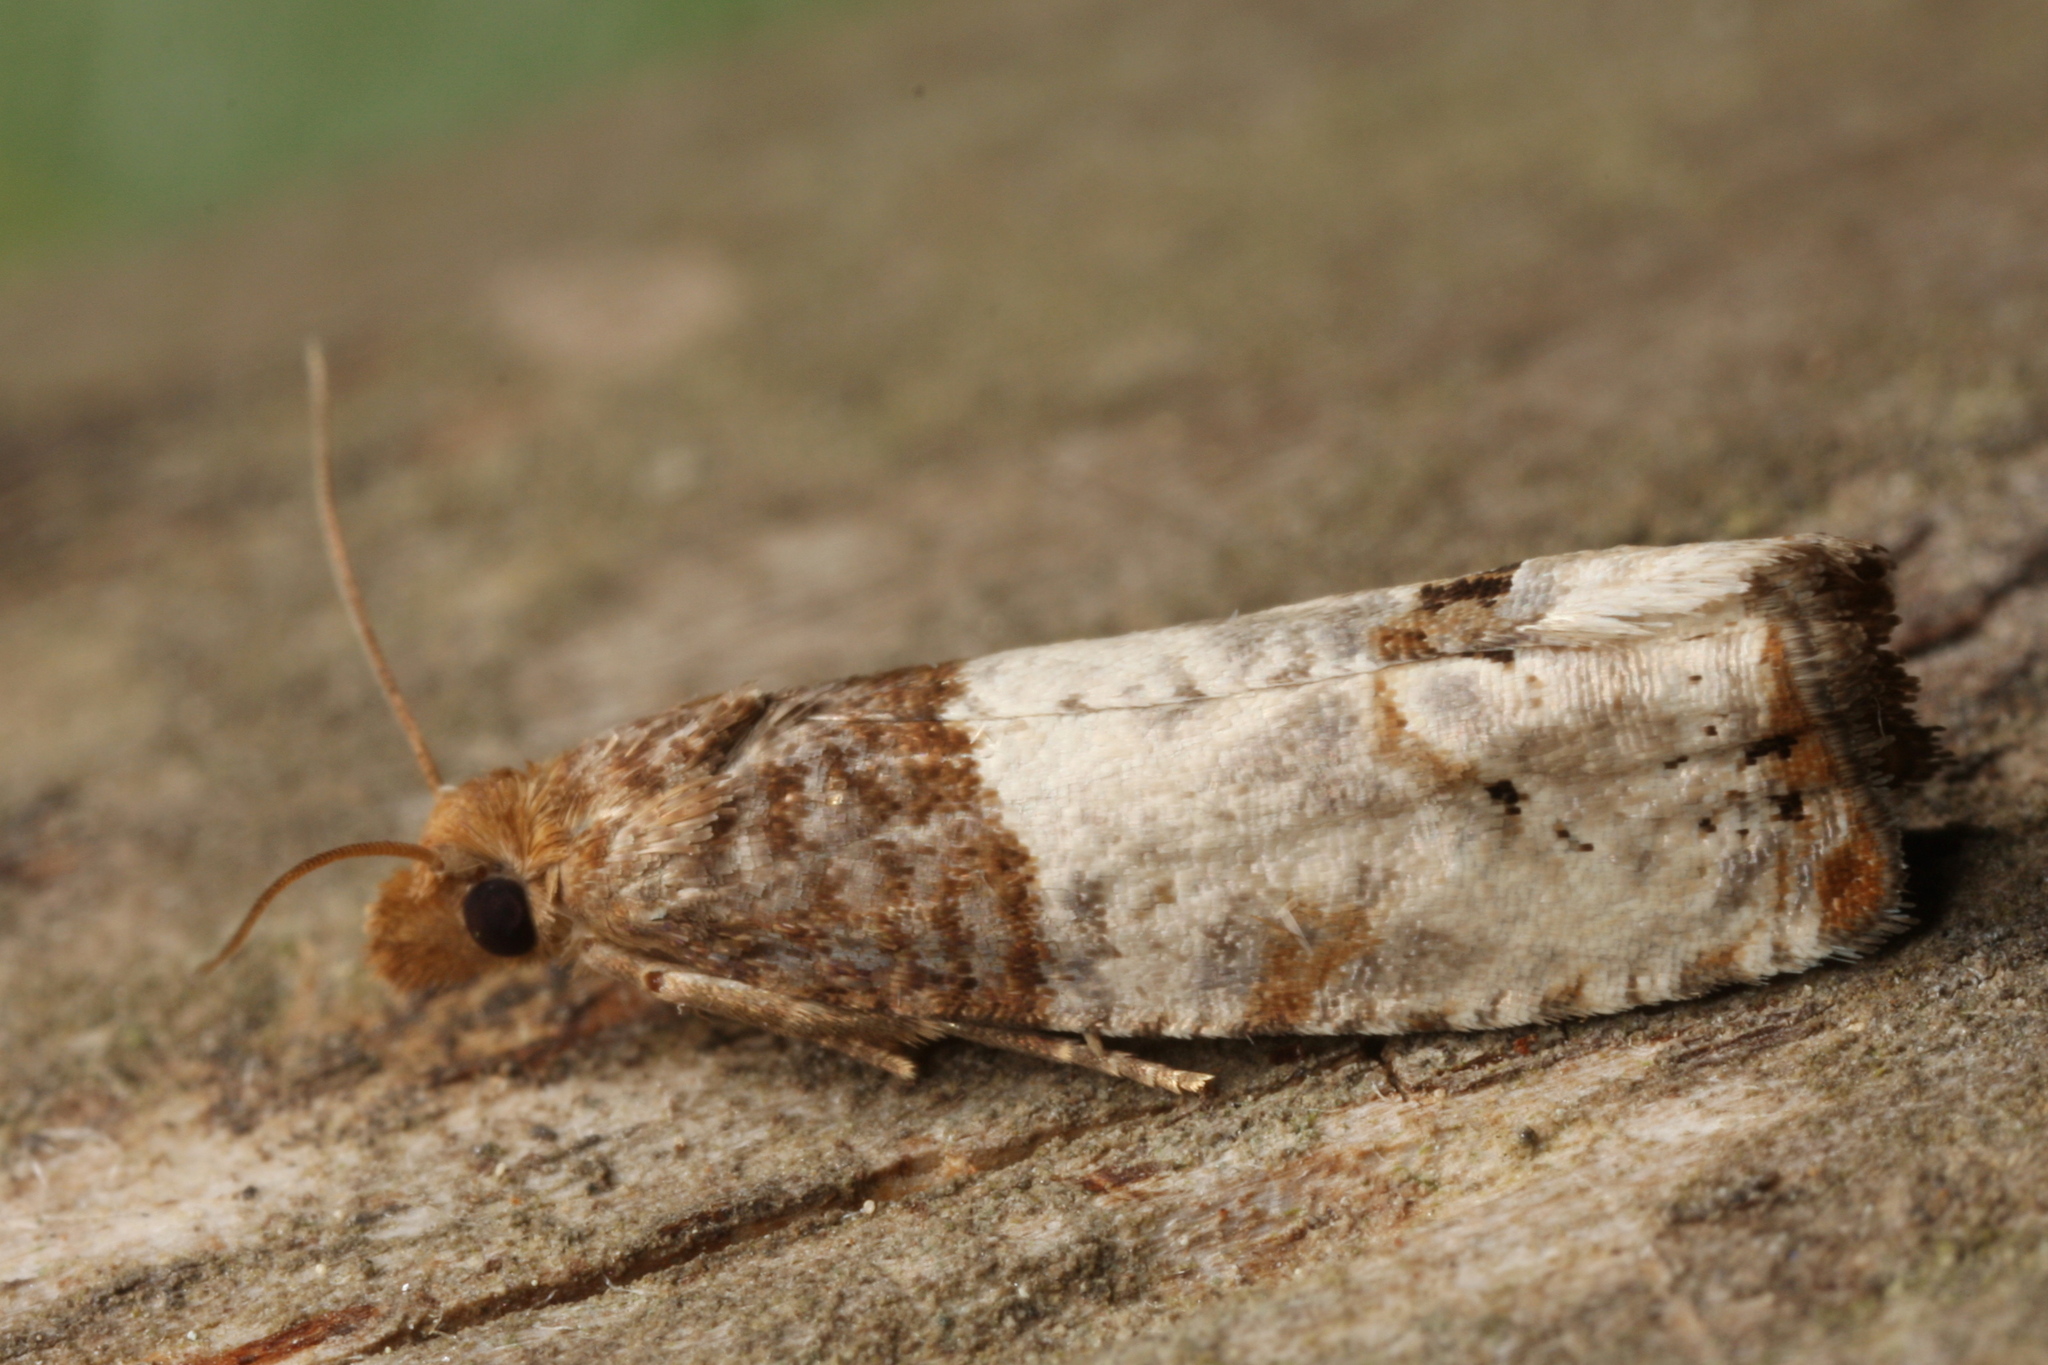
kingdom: Animalia
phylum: Arthropoda
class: Insecta
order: Lepidoptera
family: Tortricidae
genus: Epiblema
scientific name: Epiblema aquana
